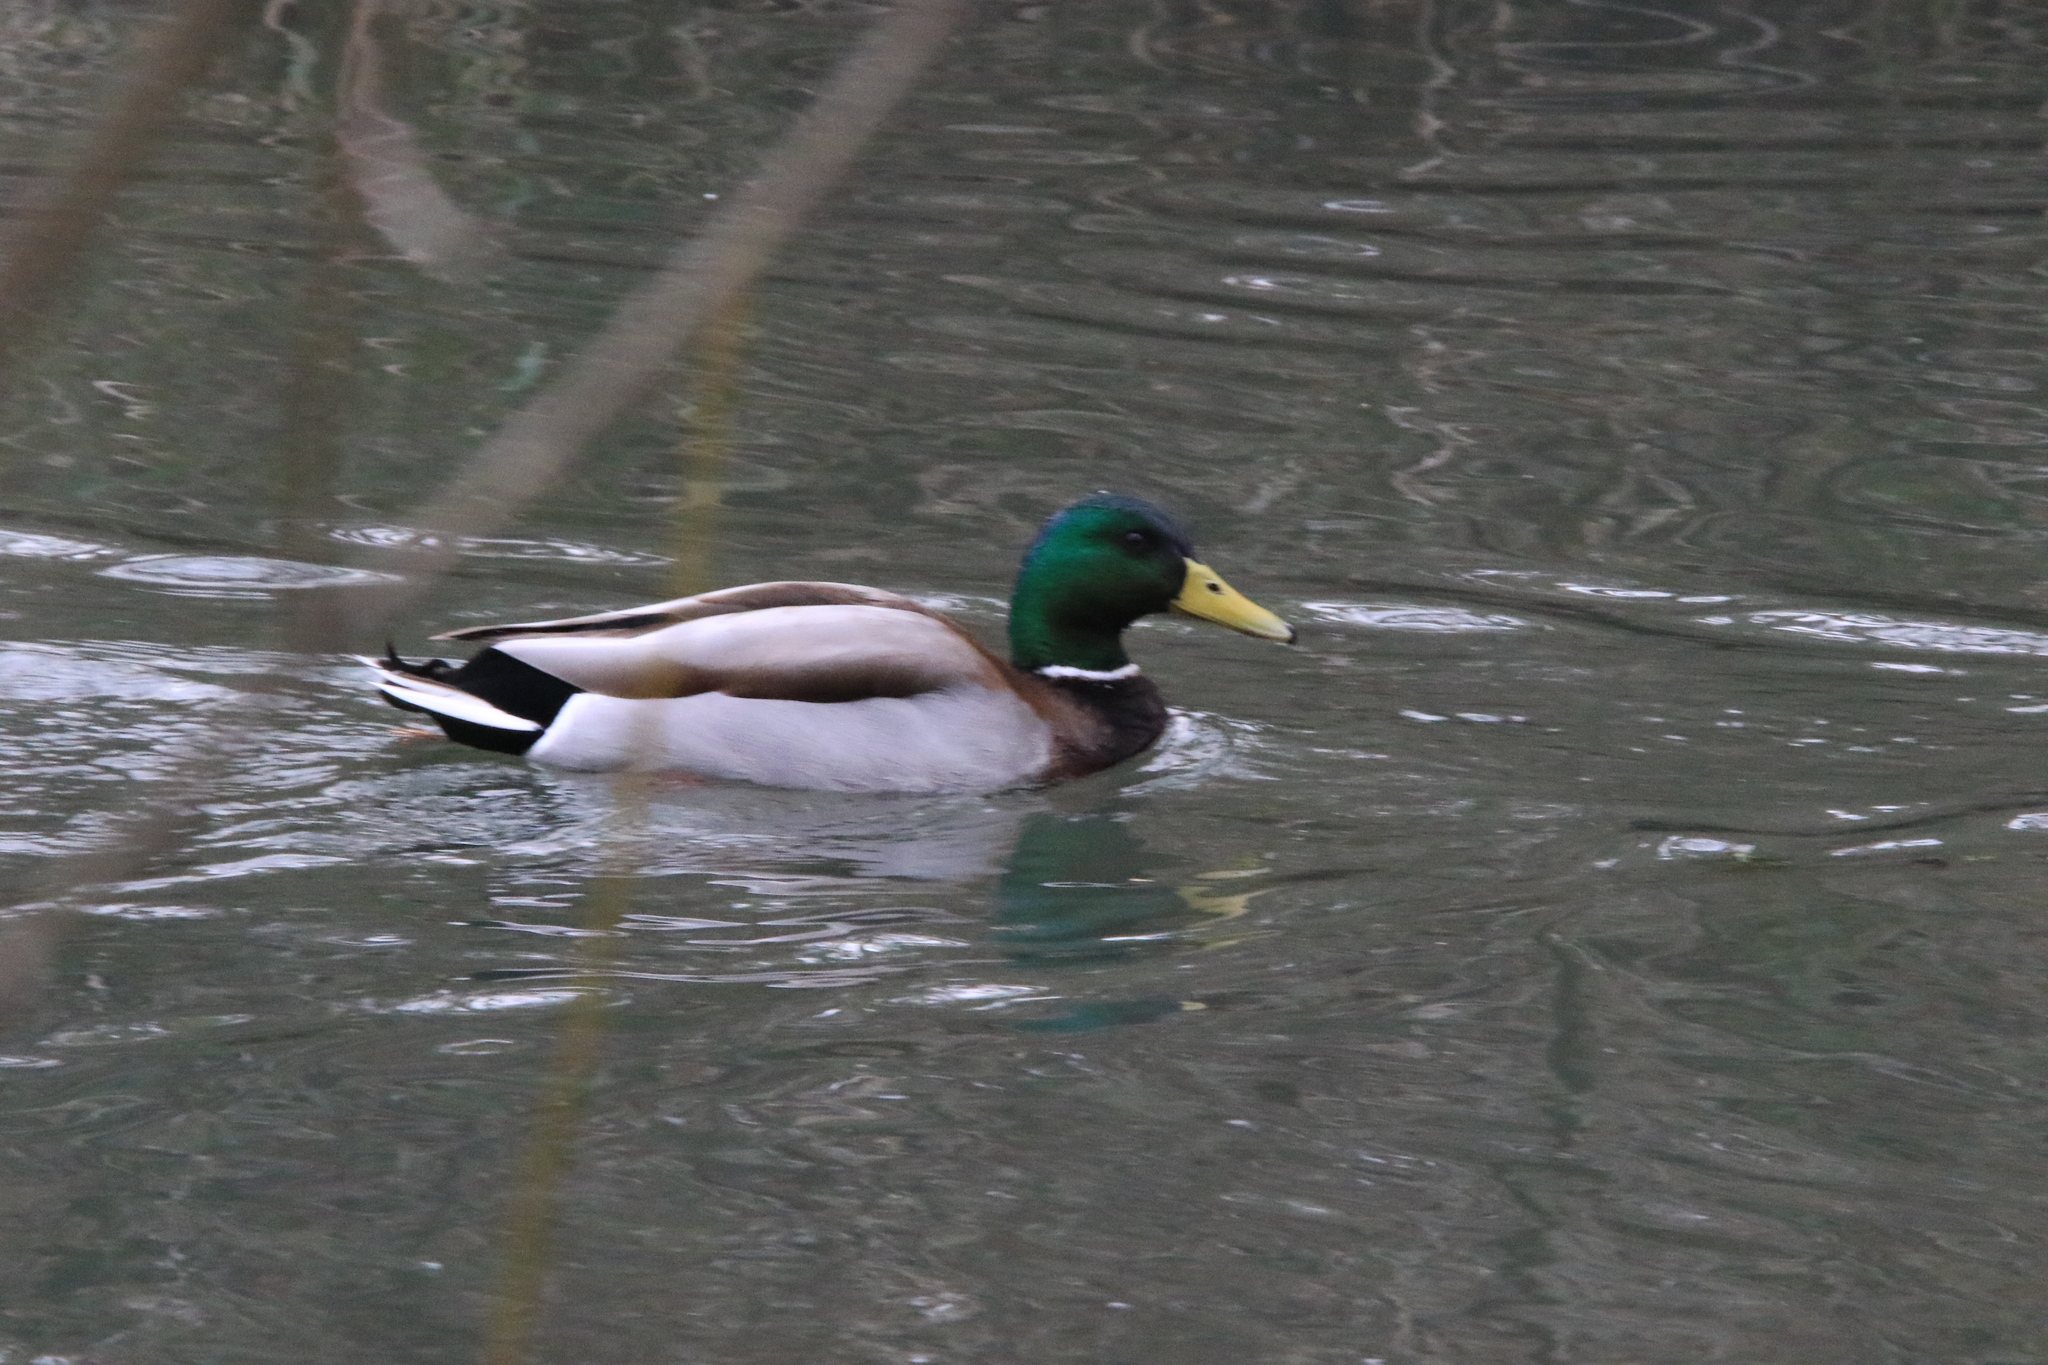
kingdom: Animalia
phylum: Chordata
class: Aves
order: Anseriformes
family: Anatidae
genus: Anas
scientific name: Anas platyrhynchos
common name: Mallard
